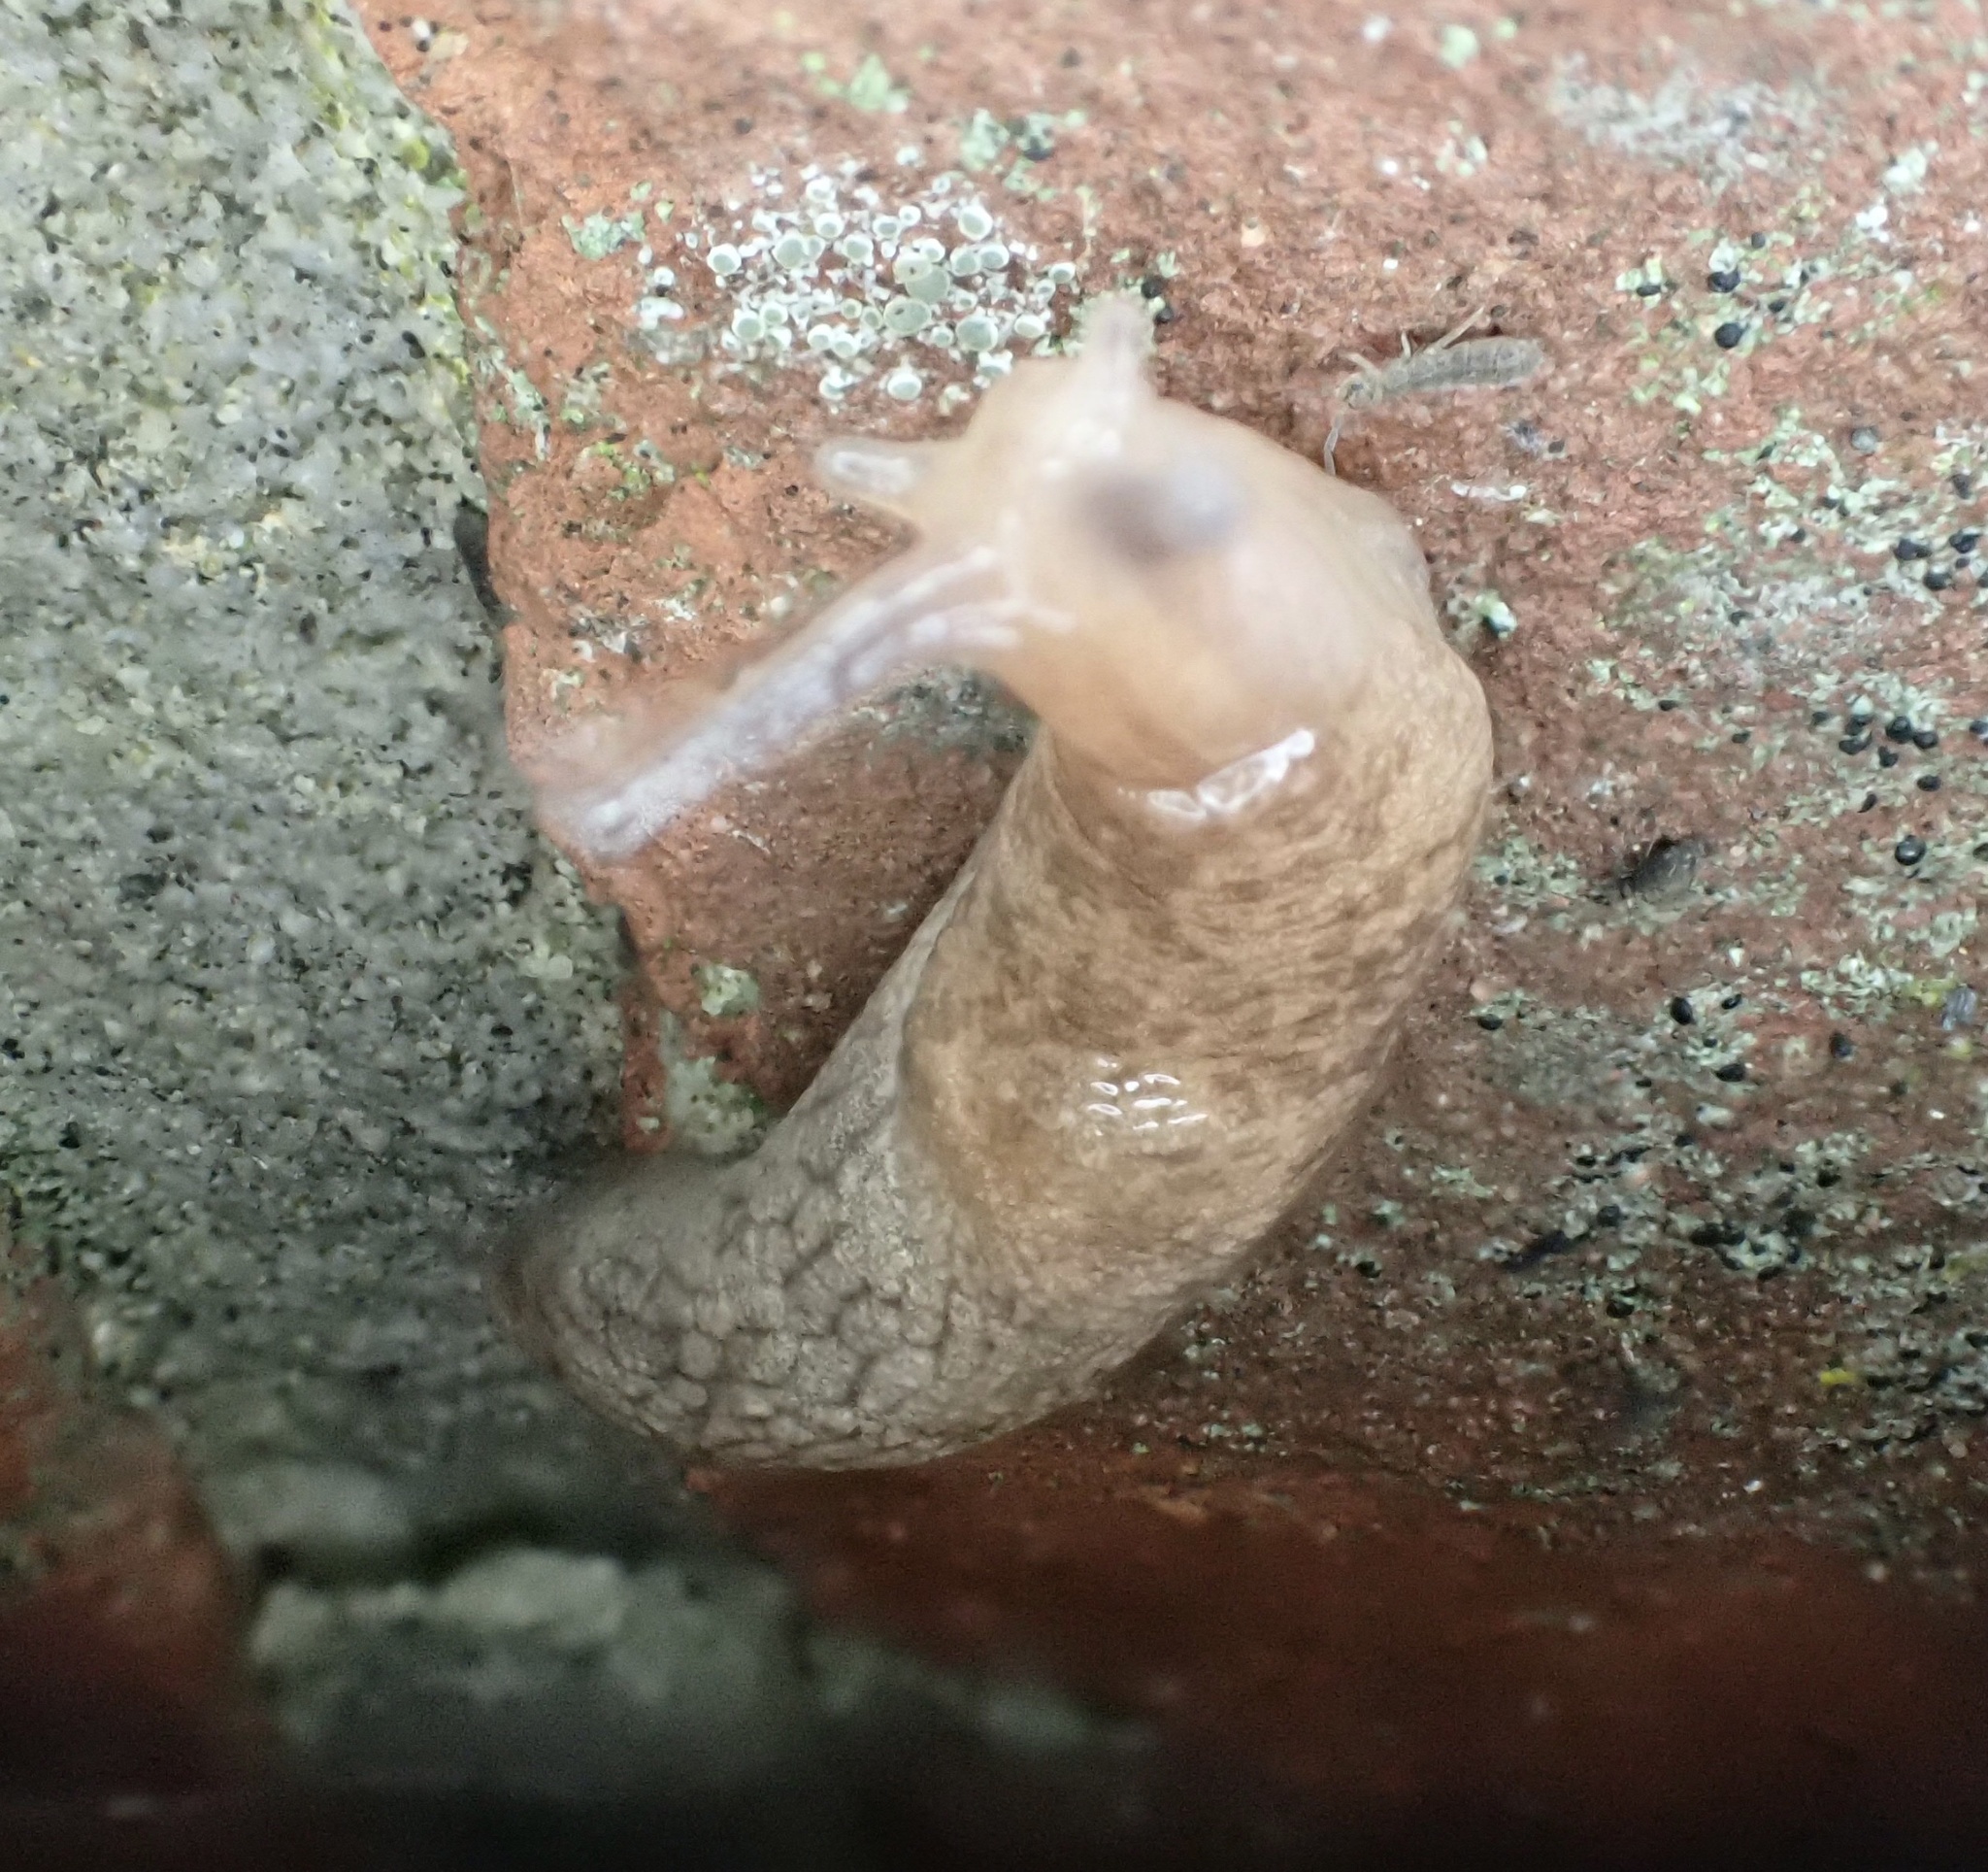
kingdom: Animalia
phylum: Mollusca
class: Gastropoda
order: Stylommatophora
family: Agriolimacidae
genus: Deroceras
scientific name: Deroceras reticulatum
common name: Gray field slug
